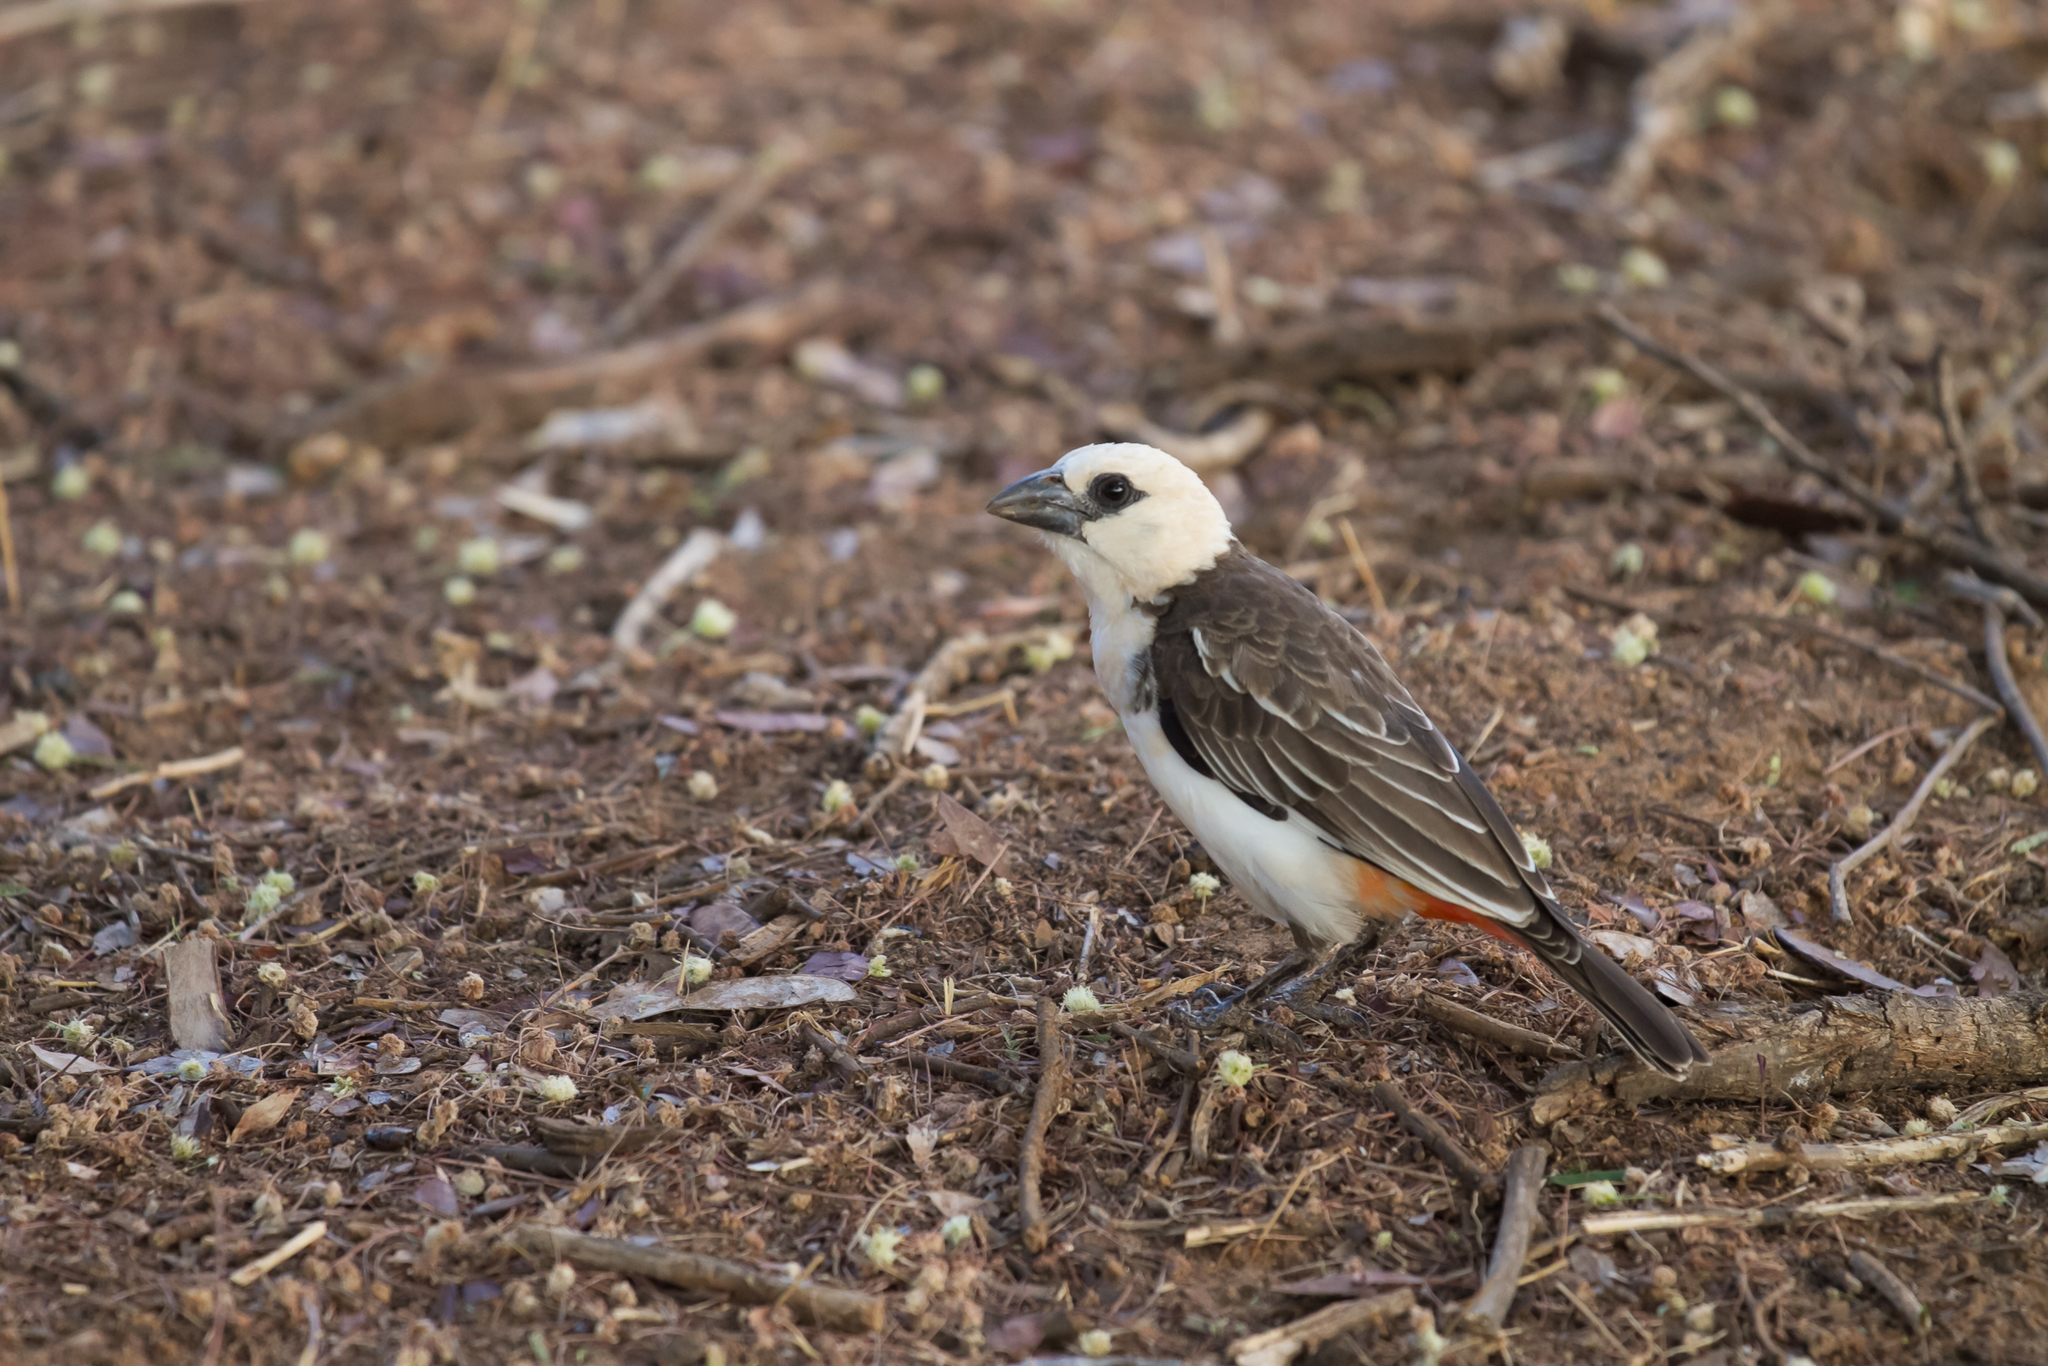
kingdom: Animalia
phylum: Chordata
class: Aves
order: Passeriformes
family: Ploceidae
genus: Dinemellia
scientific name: Dinemellia dinemelli
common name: White-headed buffalo weaver
